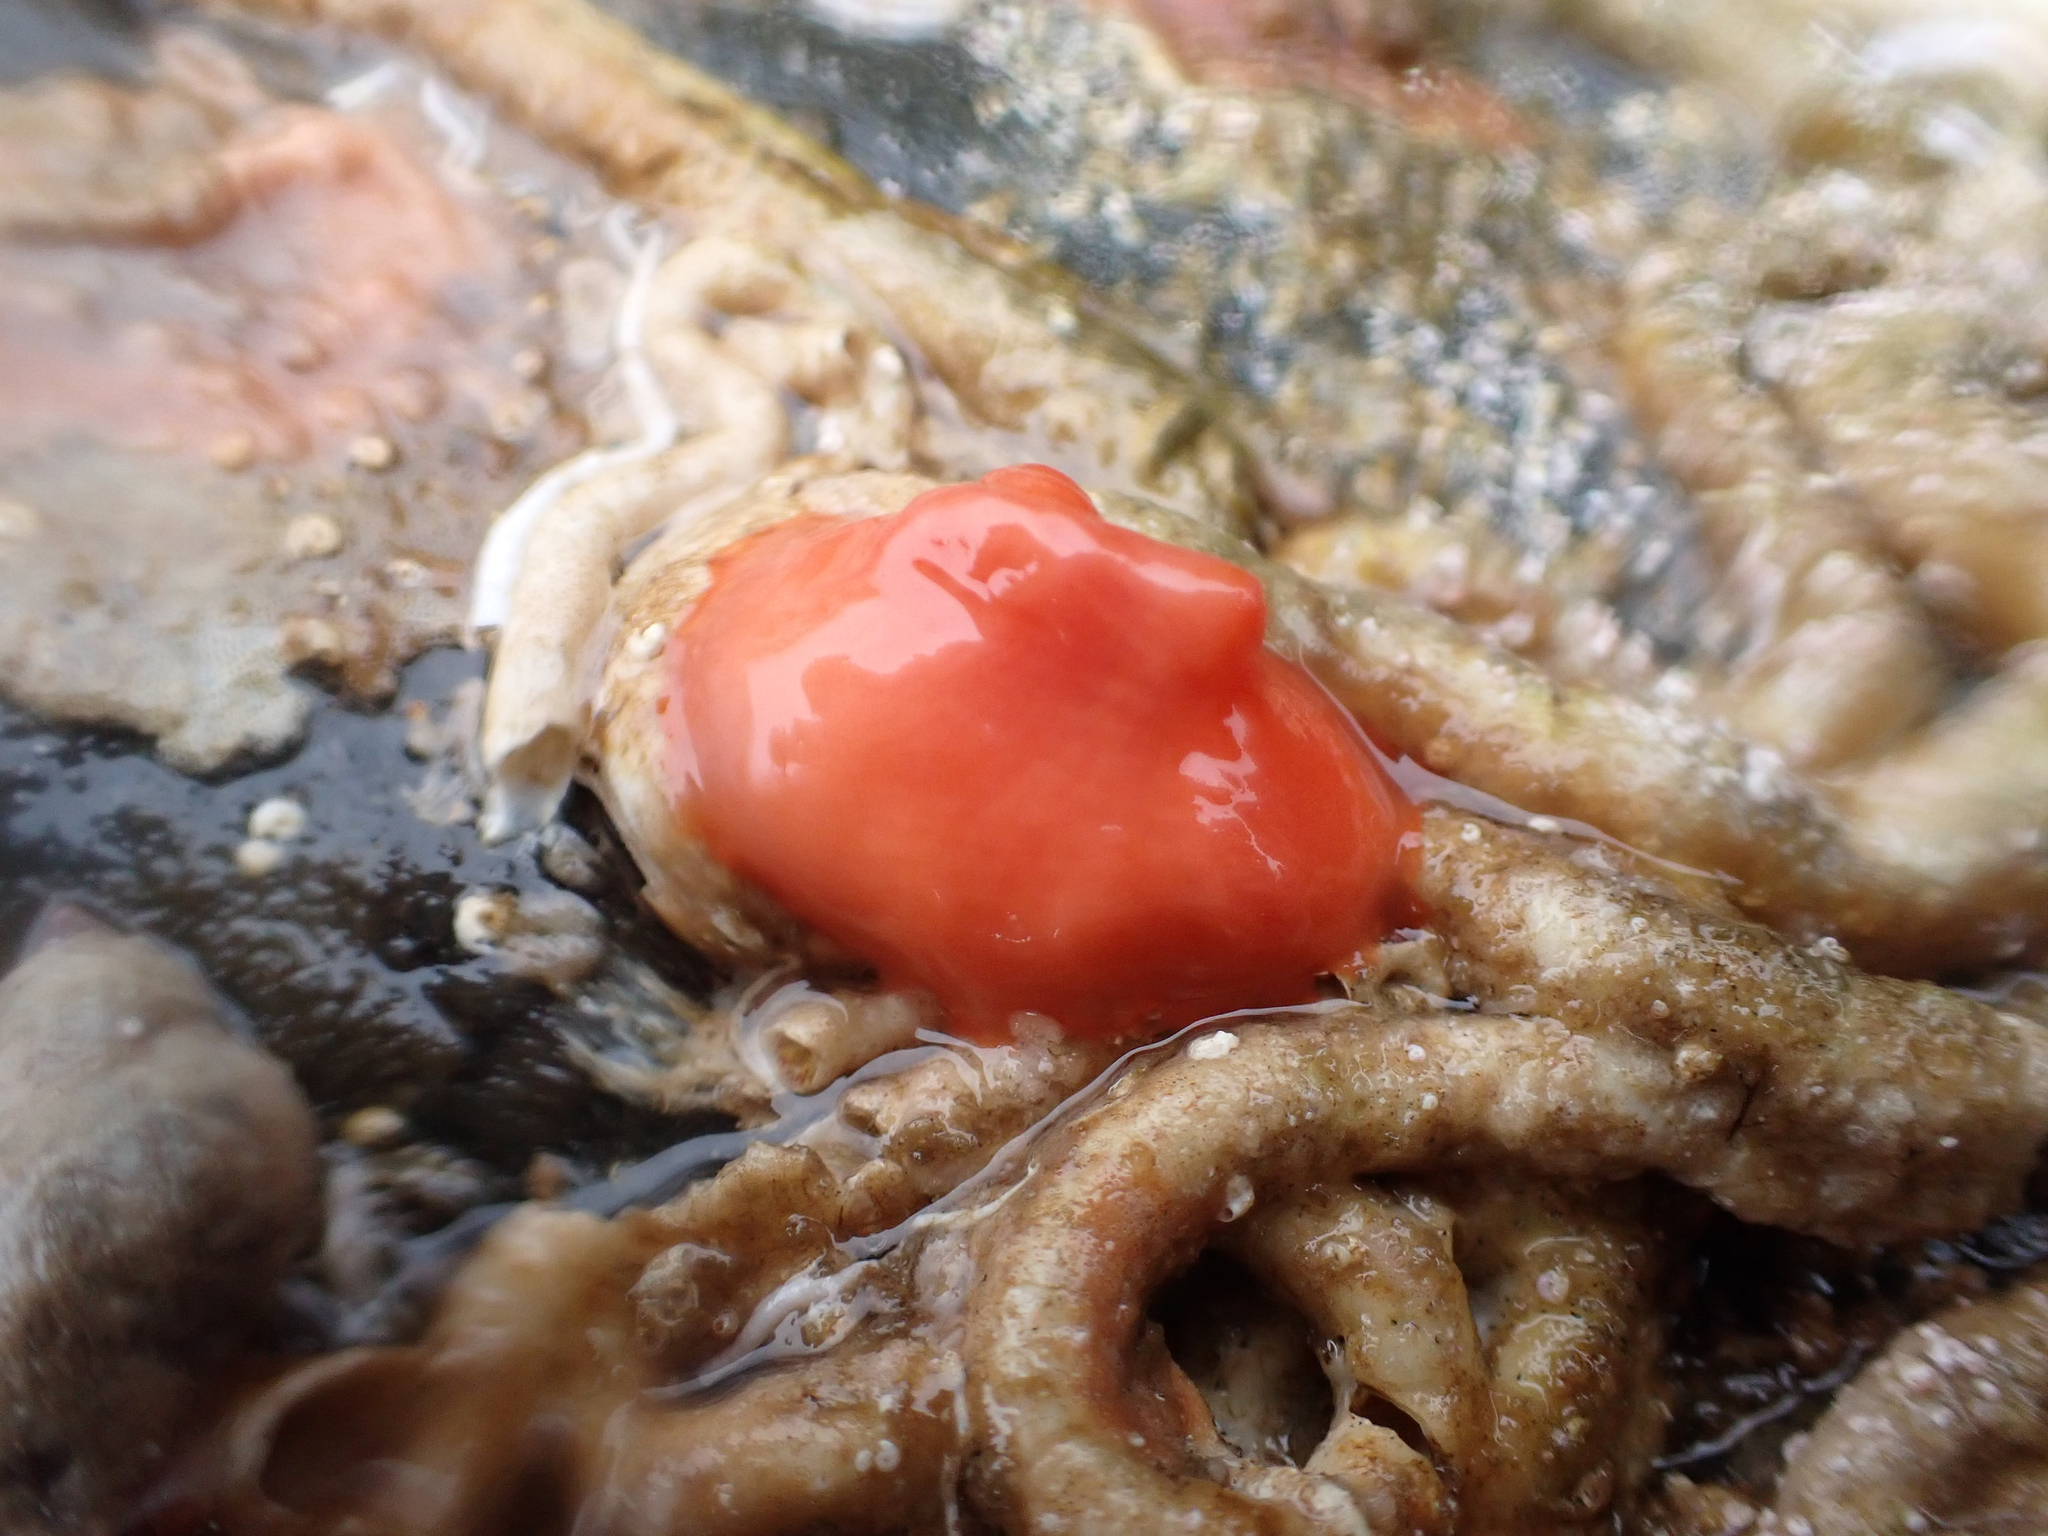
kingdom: Animalia
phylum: Chordata
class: Ascidiacea
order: Stolidobranchia
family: Styelidae
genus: Cnemidocarpa
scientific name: Cnemidocarpa finmarkiensis
